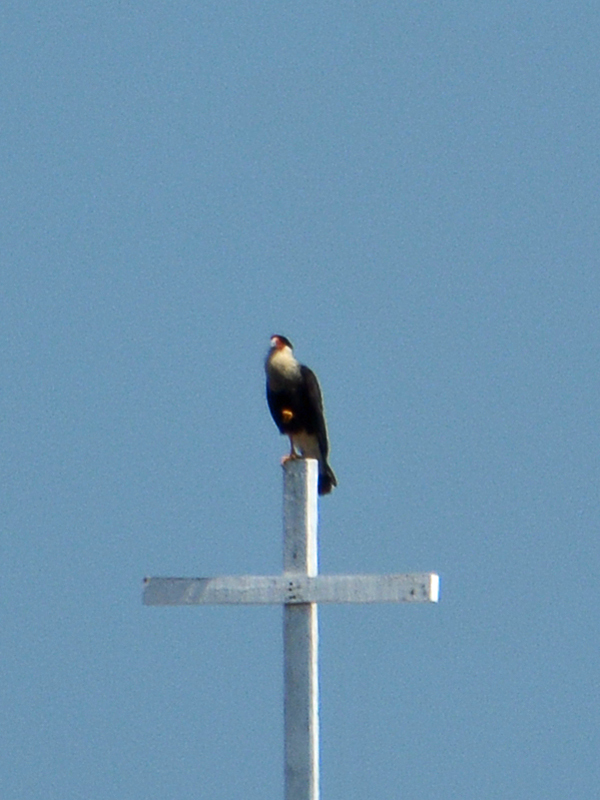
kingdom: Animalia
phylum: Chordata
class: Aves
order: Falconiformes
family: Falconidae
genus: Caracara
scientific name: Caracara plancus
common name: Southern caracara
